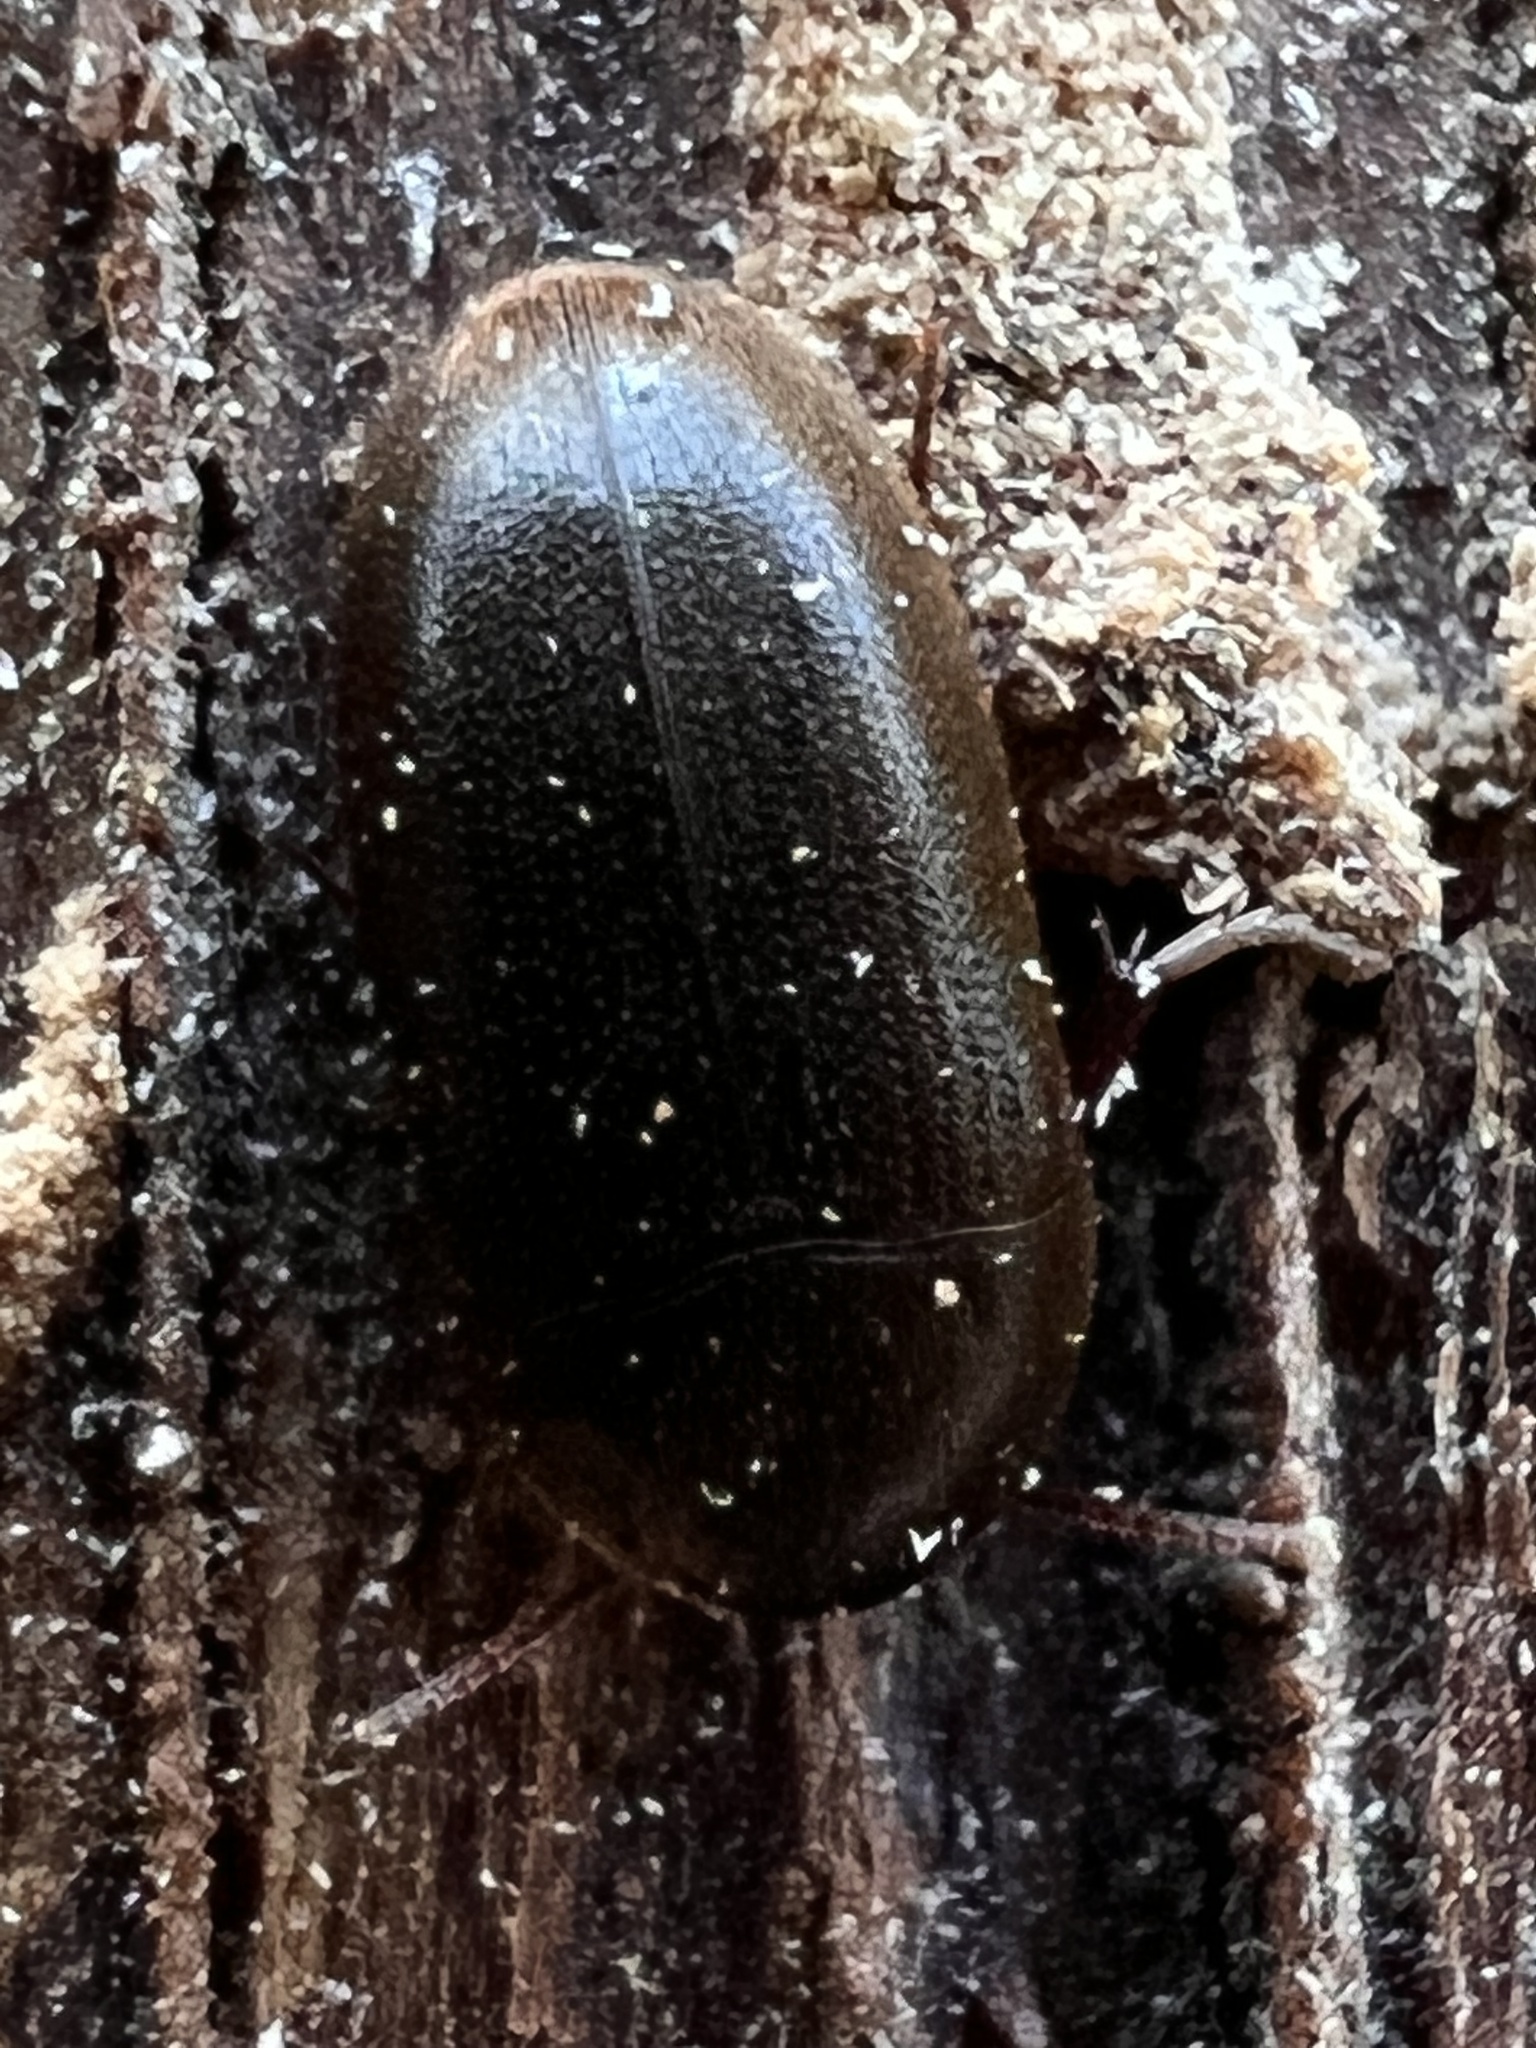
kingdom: Animalia
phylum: Arthropoda
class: Insecta
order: Coleoptera
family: Tetratomidae
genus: Eustrophus
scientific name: Eustrophus tomentosus
